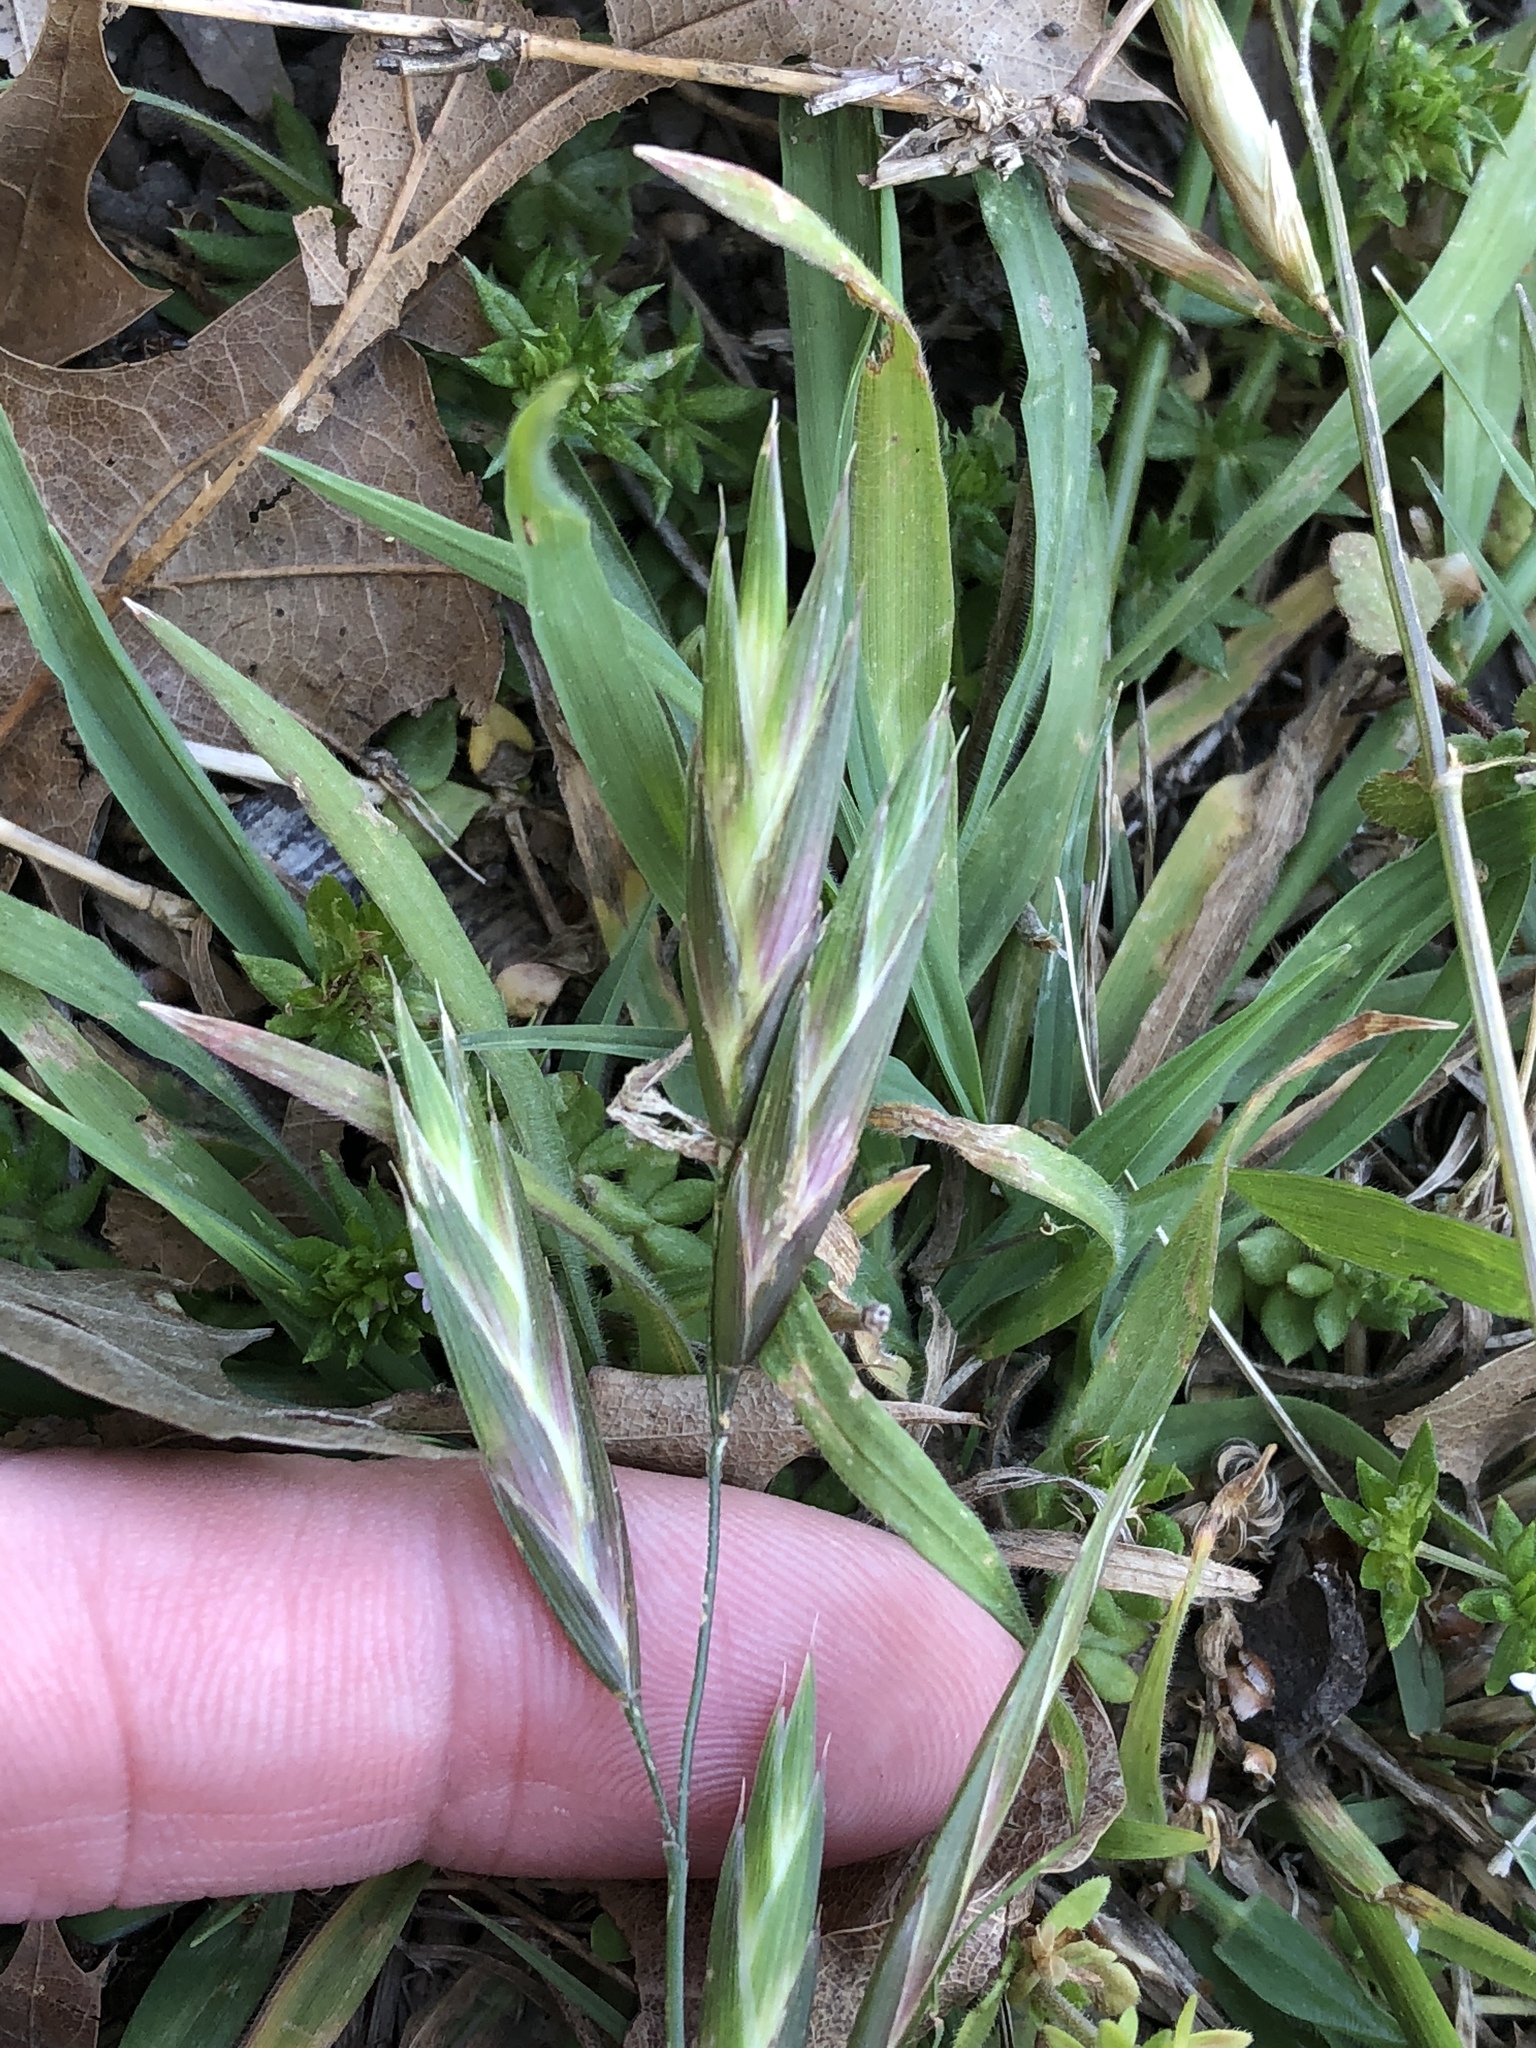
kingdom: Plantae
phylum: Tracheophyta
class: Liliopsida
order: Poales
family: Poaceae
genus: Bromus
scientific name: Bromus catharticus
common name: Rescuegrass
